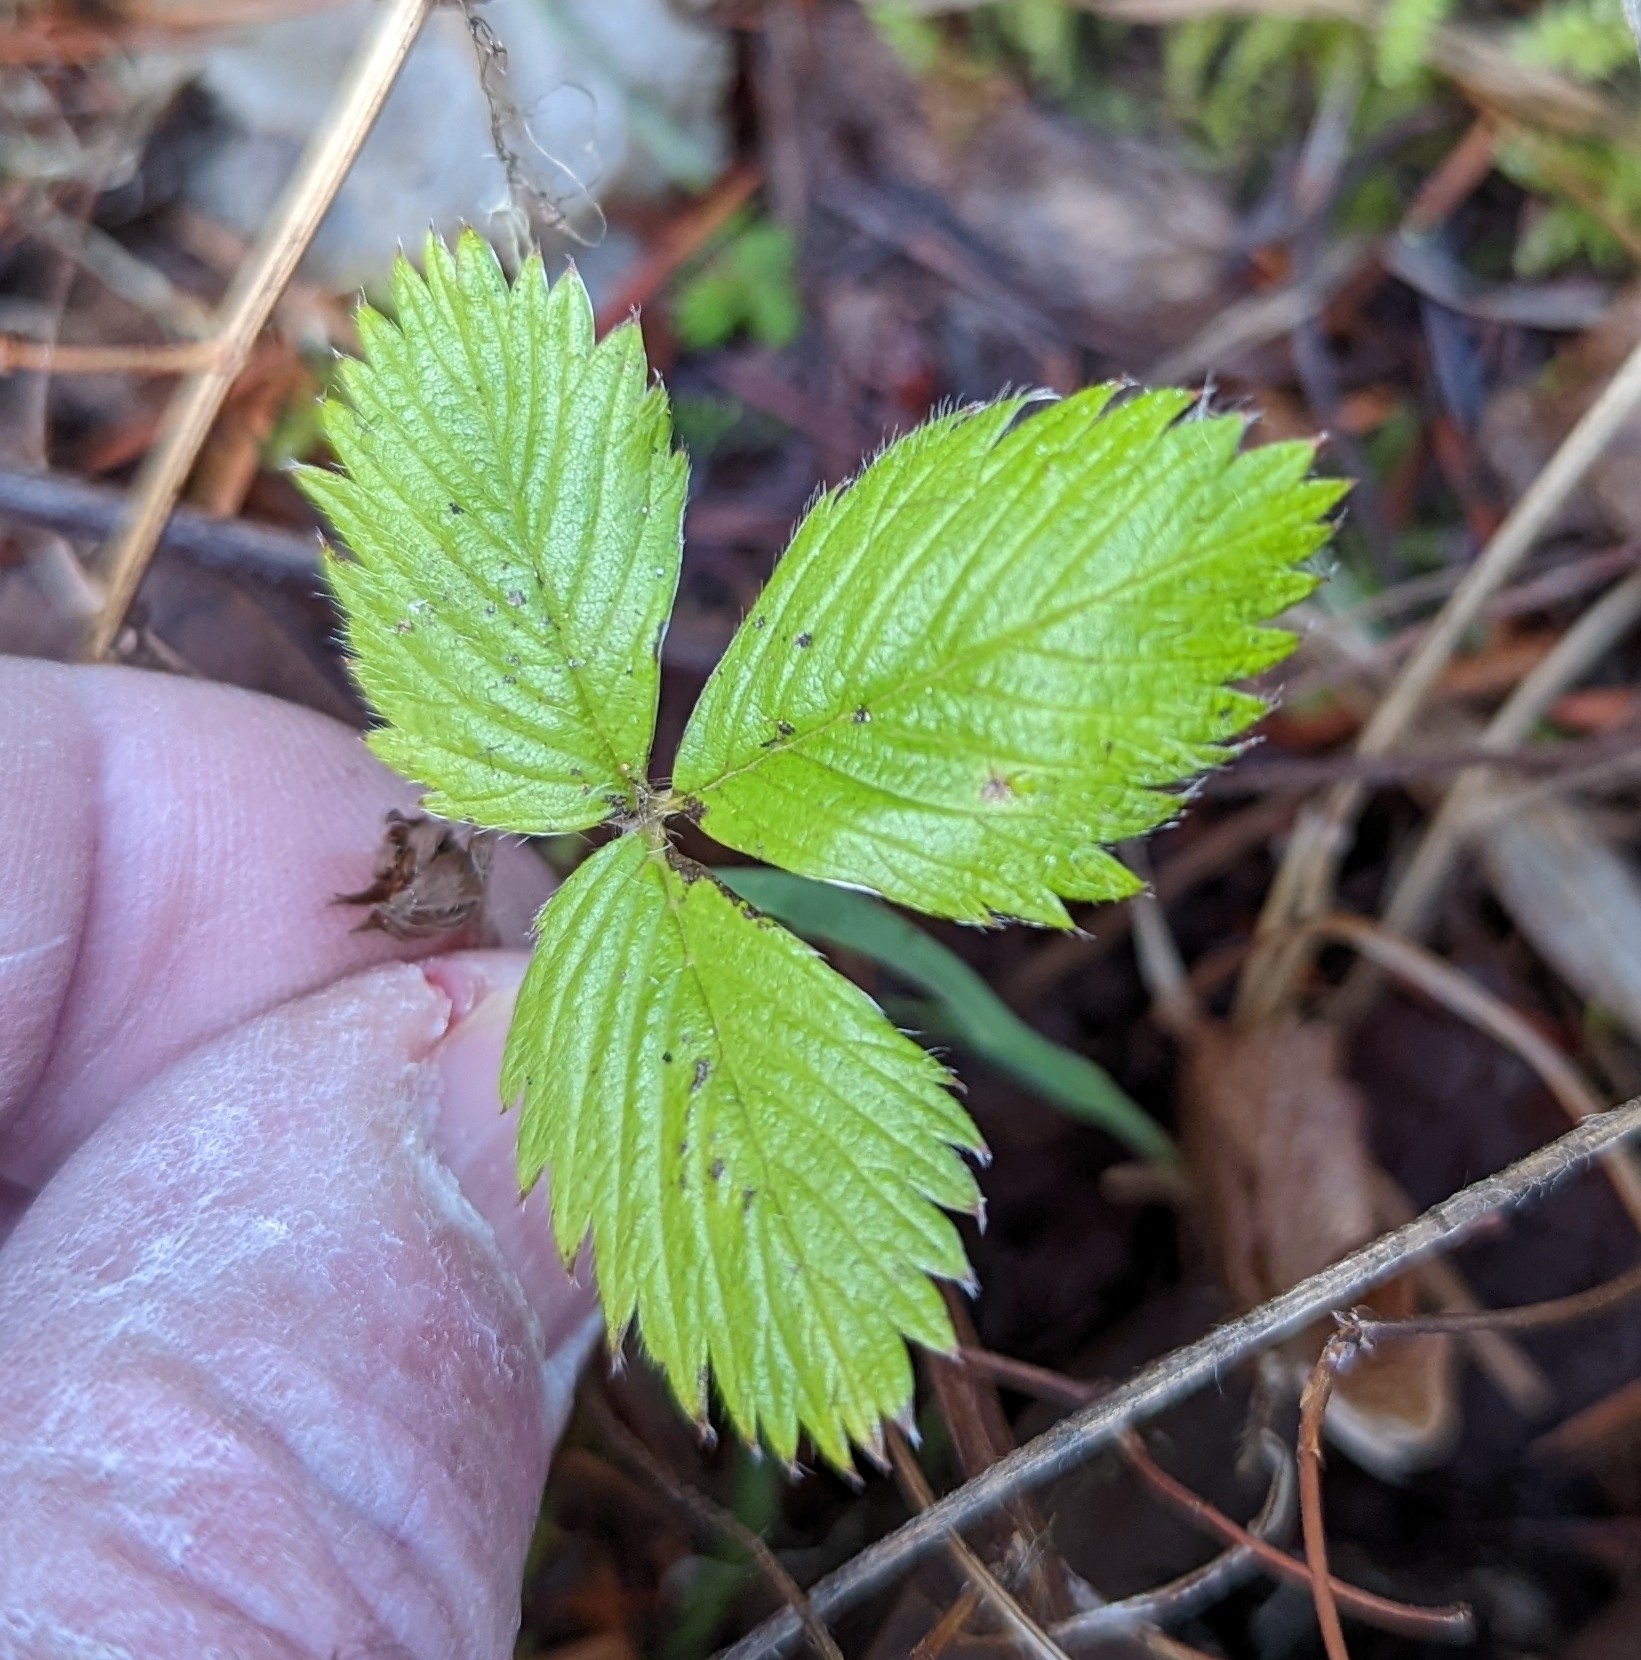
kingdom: Plantae
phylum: Tracheophyta
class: Magnoliopsida
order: Rosales
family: Rosaceae
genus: Fragaria
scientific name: Fragaria vesca
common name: Wild strawberry
